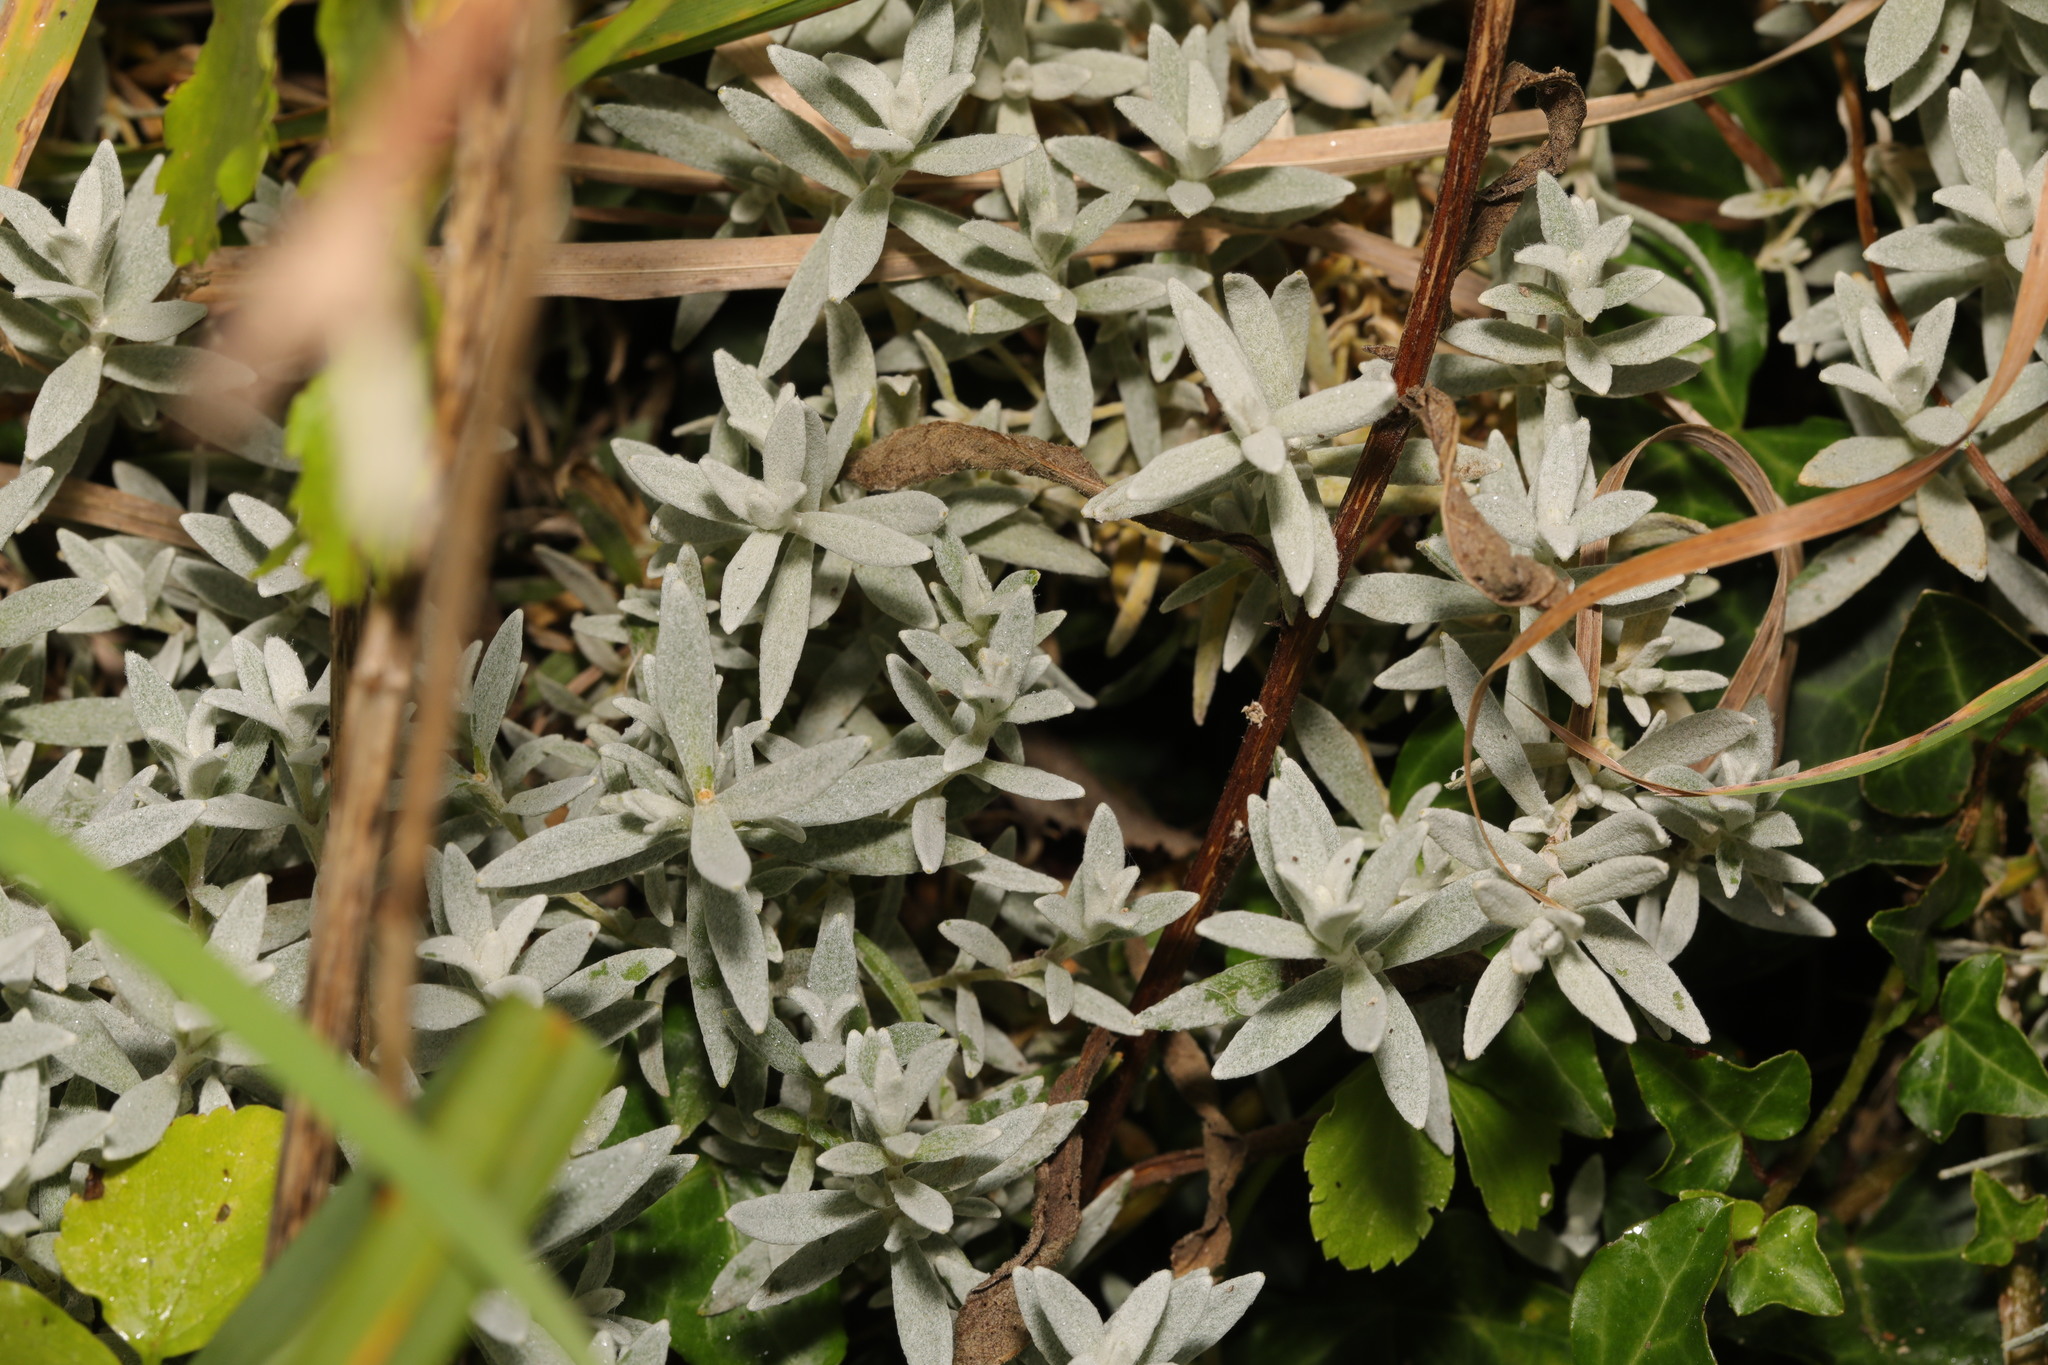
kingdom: Plantae
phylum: Tracheophyta
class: Magnoliopsida
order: Caryophyllales
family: Caryophyllaceae
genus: Cerastium
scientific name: Cerastium tomentosum
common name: Snow-in-summer
